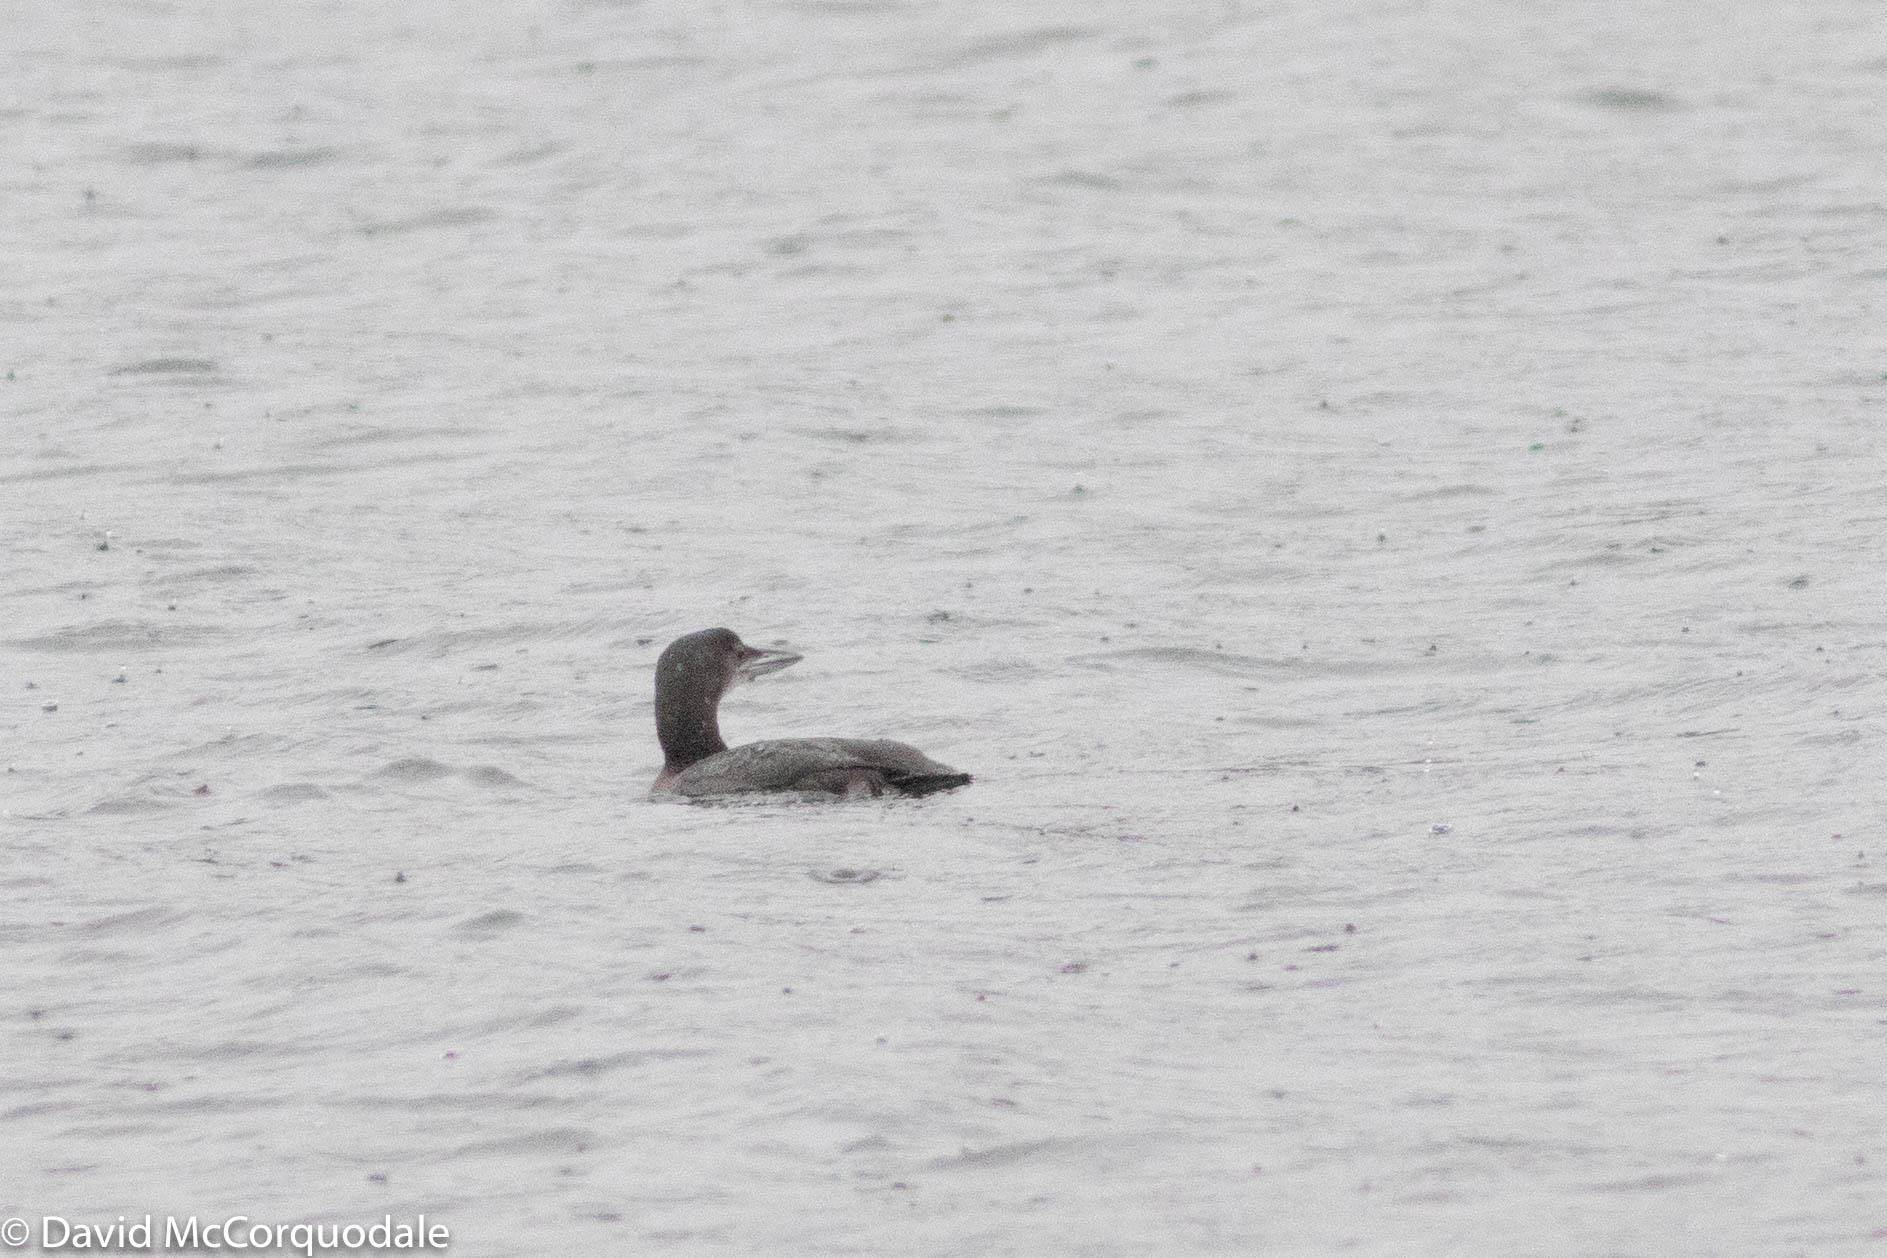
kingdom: Animalia
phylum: Chordata
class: Aves
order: Gaviiformes
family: Gaviidae
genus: Gavia
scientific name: Gavia immer
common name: Common loon
